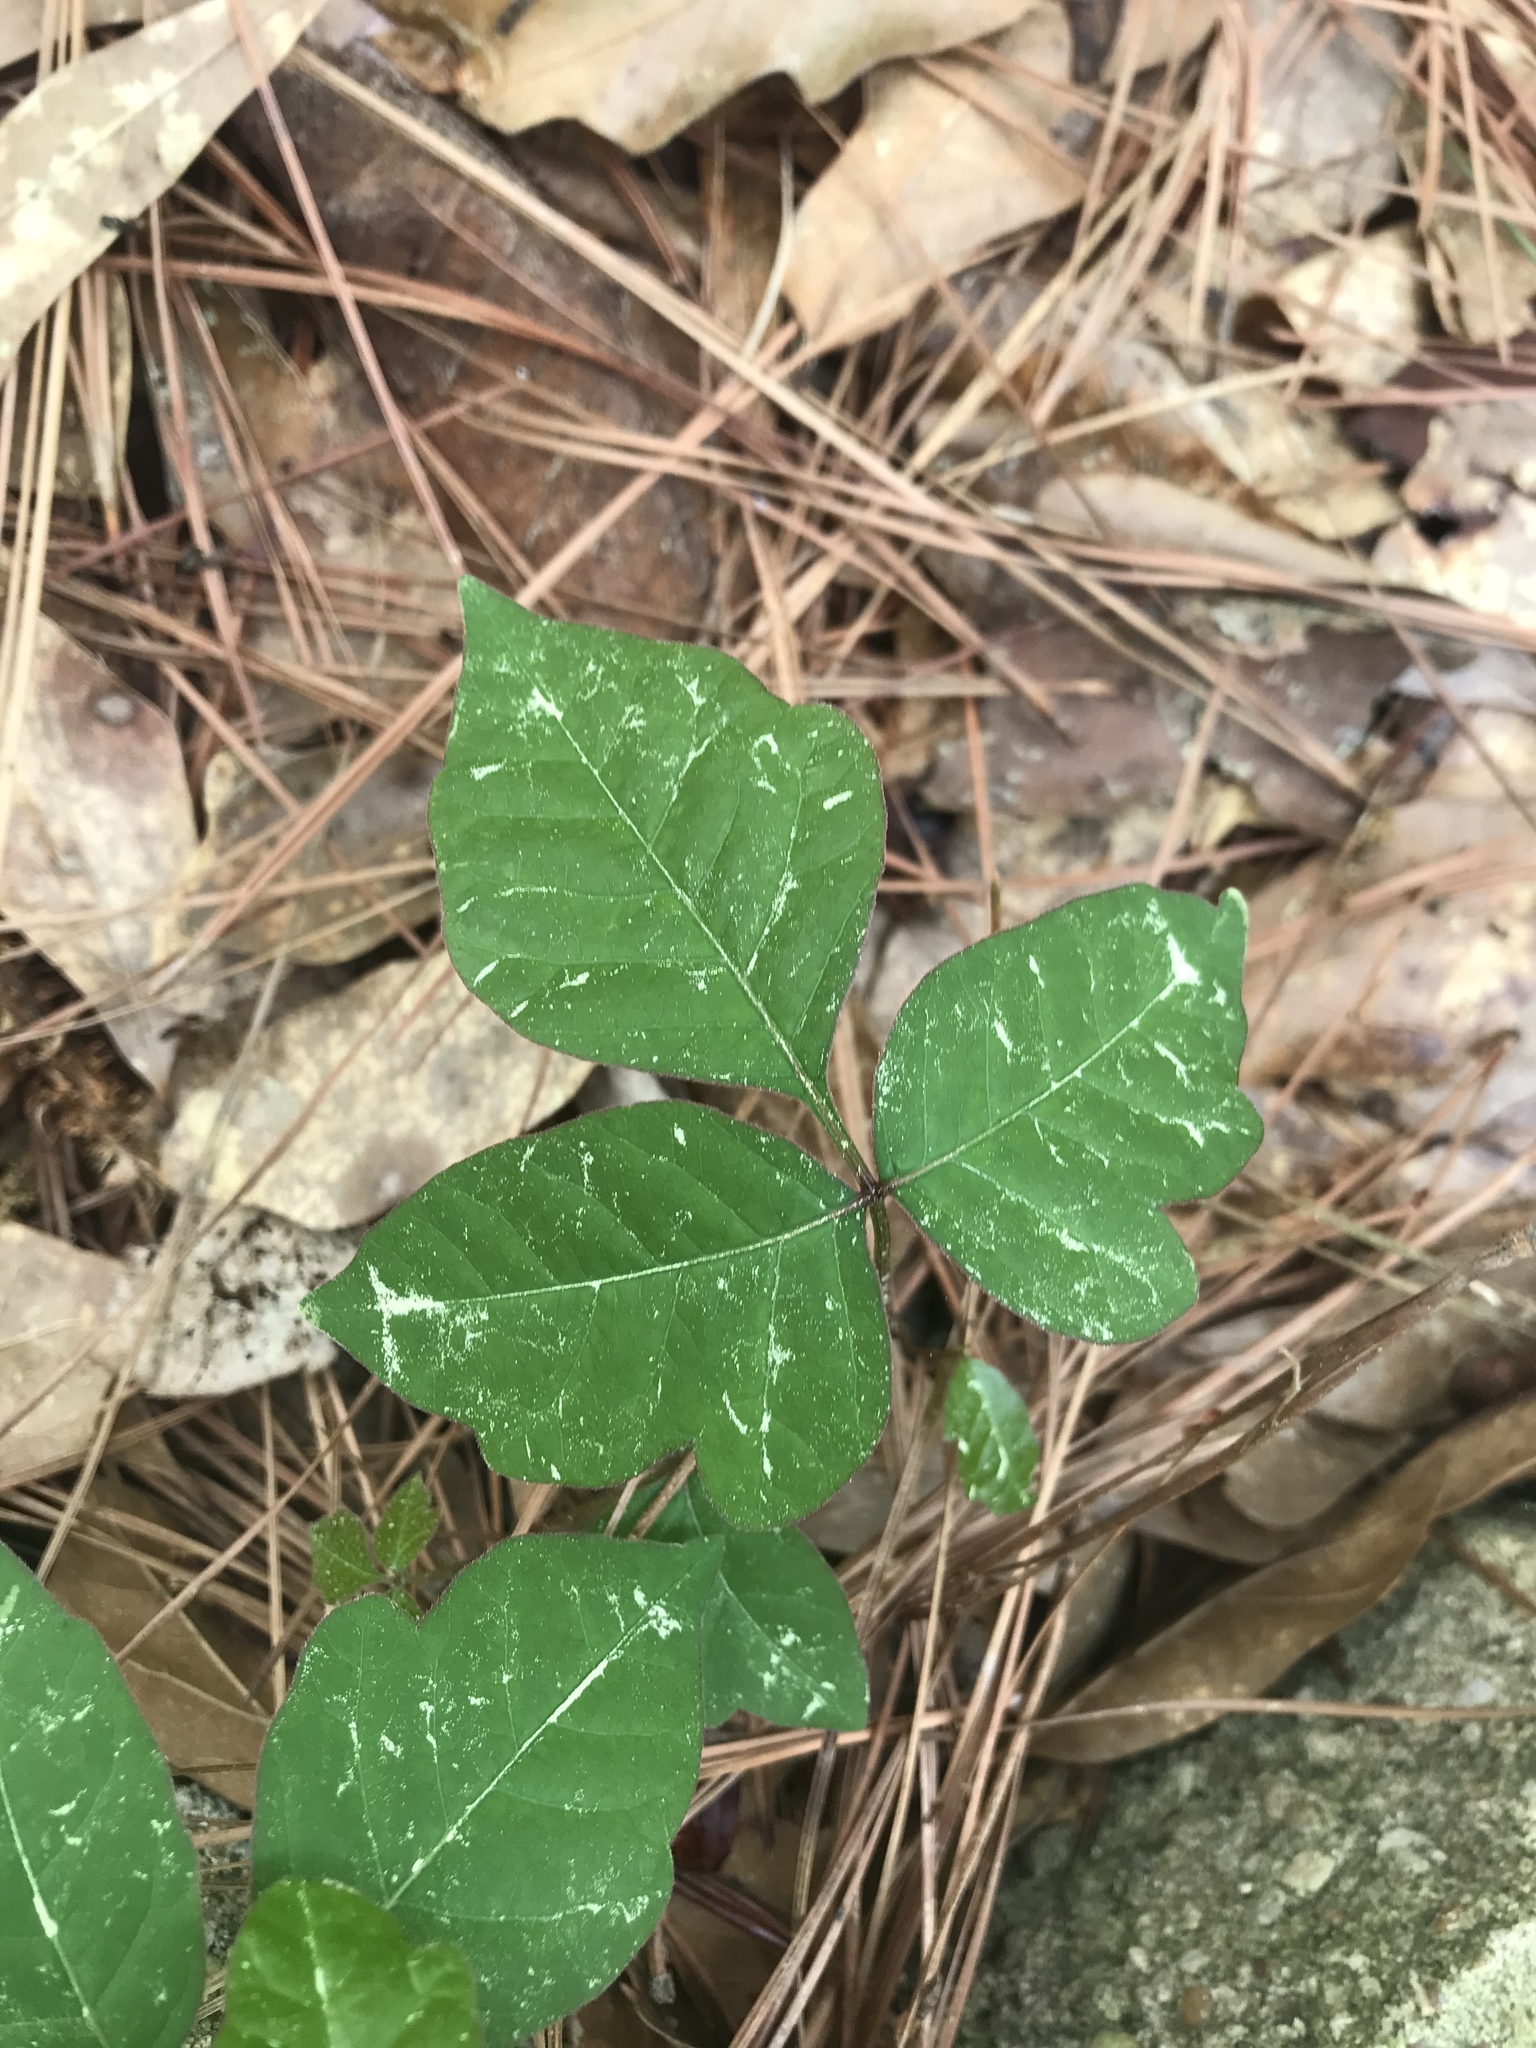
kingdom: Plantae
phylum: Tracheophyta
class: Magnoliopsida
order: Sapindales
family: Anacardiaceae
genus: Toxicodendron
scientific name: Toxicodendron radicans
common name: Poison ivy
